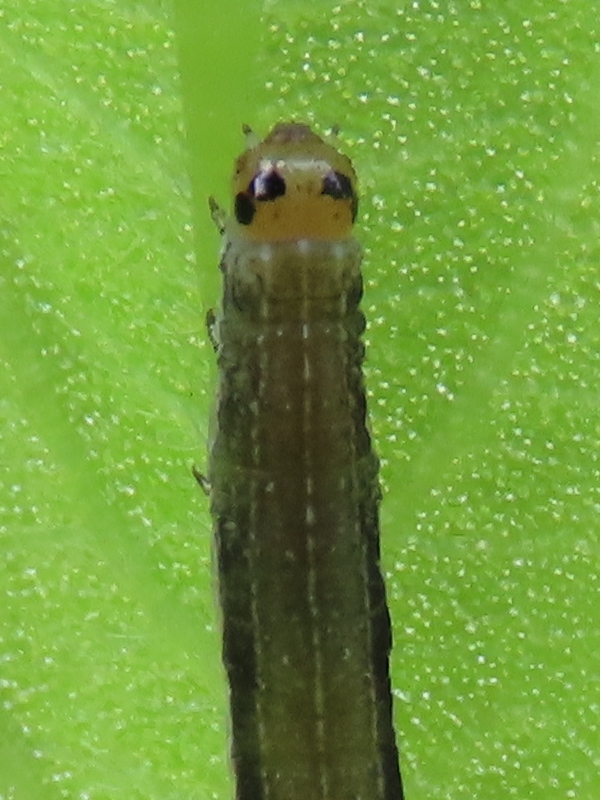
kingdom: Animalia
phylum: Arthropoda
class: Insecta
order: Lepidoptera
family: Noctuidae
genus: Crocigrapha
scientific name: Crocigrapha normani
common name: Norman's quaker
